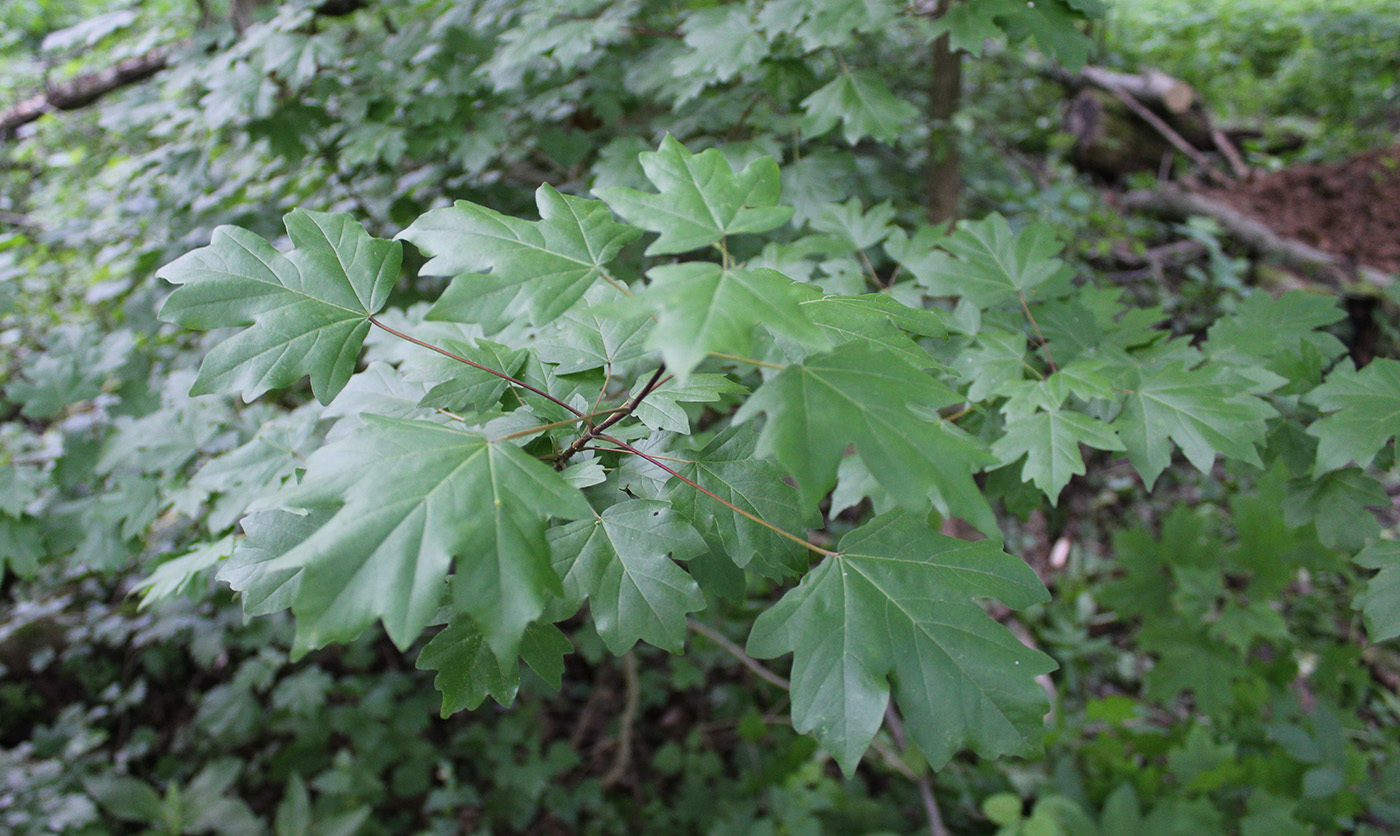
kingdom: Plantae
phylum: Tracheophyta
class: Magnoliopsida
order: Sapindales
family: Sapindaceae
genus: Acer
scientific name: Acer campestre
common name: Field maple
